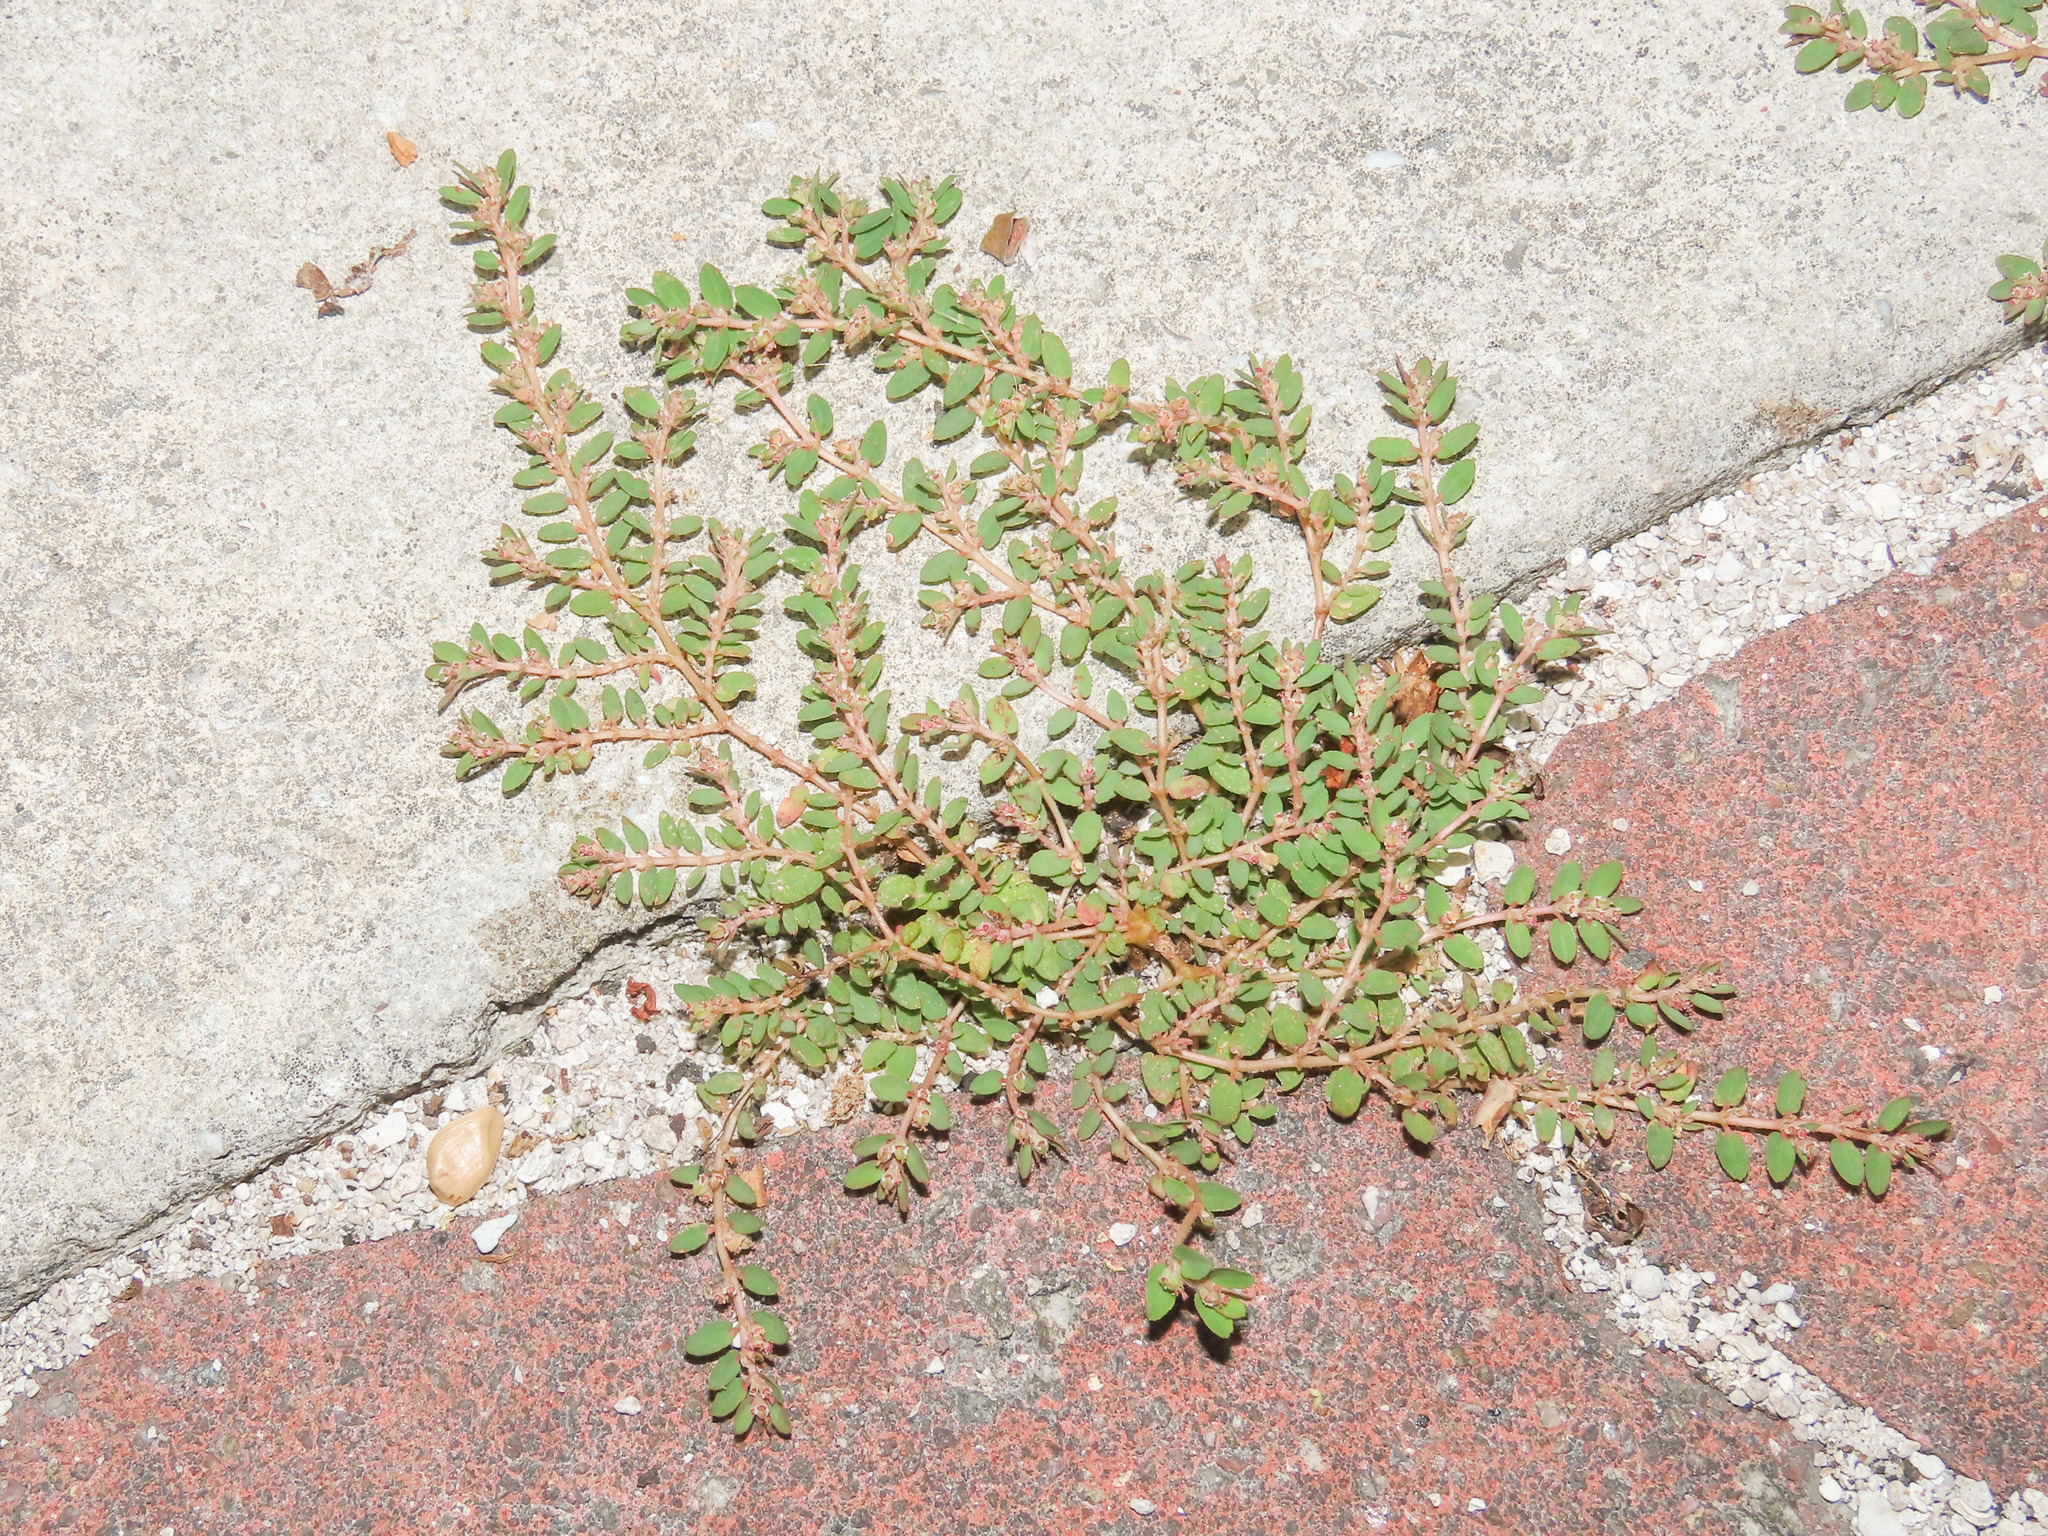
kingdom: Plantae
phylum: Tracheophyta
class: Magnoliopsida
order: Malpighiales
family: Euphorbiaceae
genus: Euphorbia
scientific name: Euphorbia thymifolia
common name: Gulf sandmat
